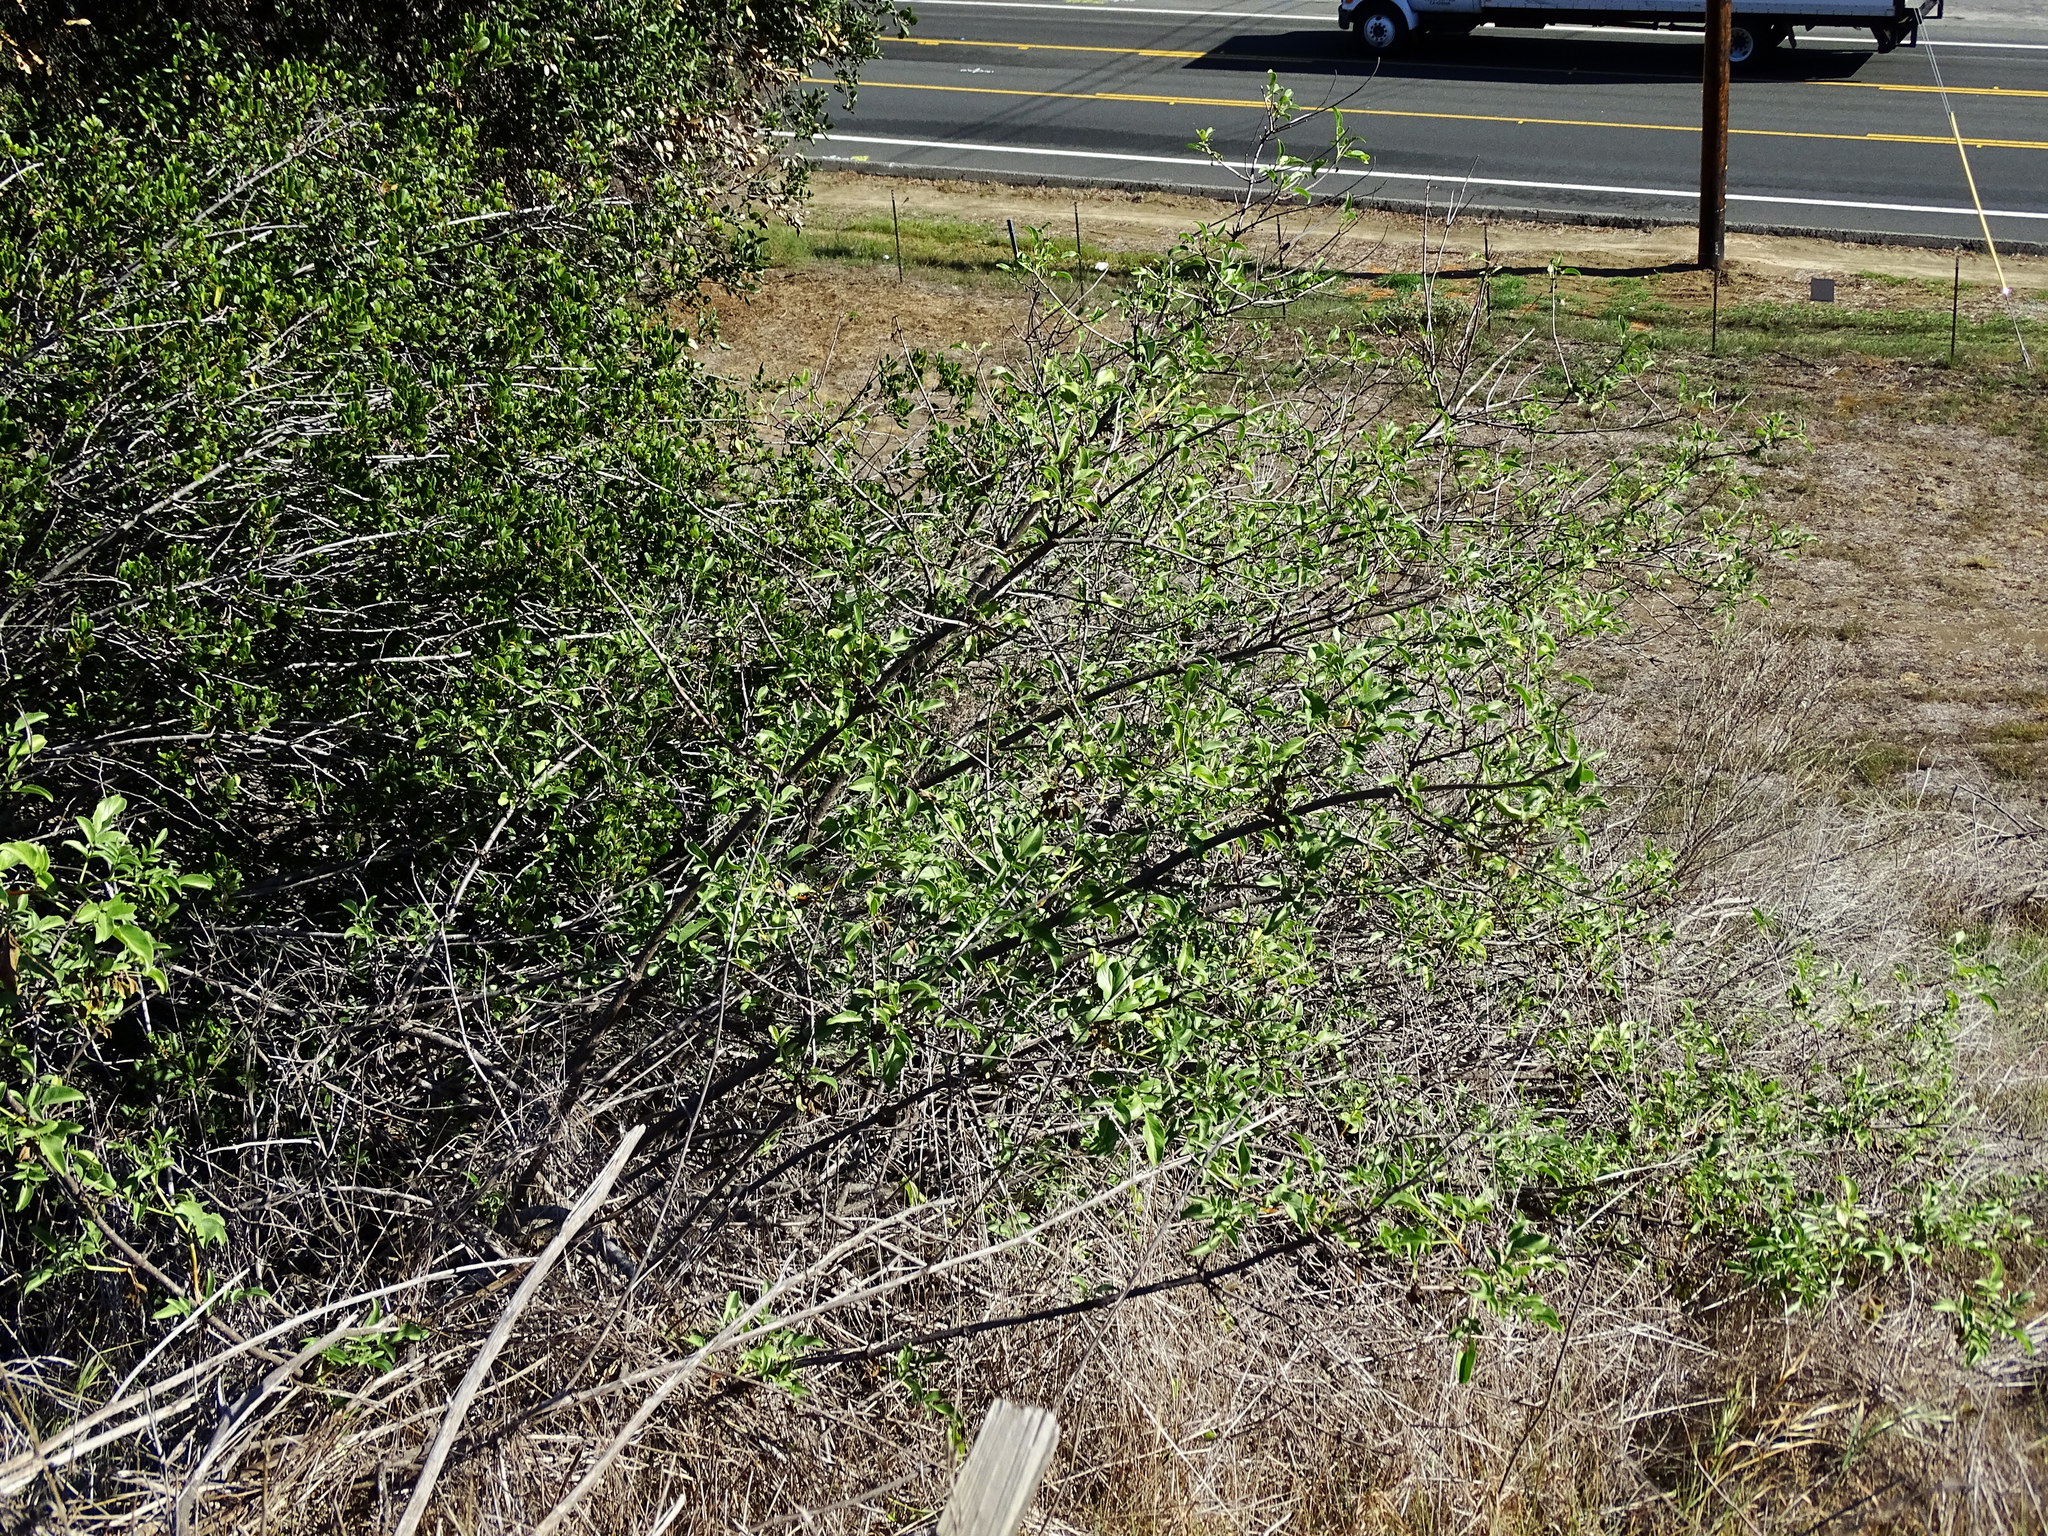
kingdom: Plantae
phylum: Tracheophyta
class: Magnoliopsida
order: Dipsacales
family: Viburnaceae
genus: Sambucus
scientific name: Sambucus cerulea
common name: Blue elder
